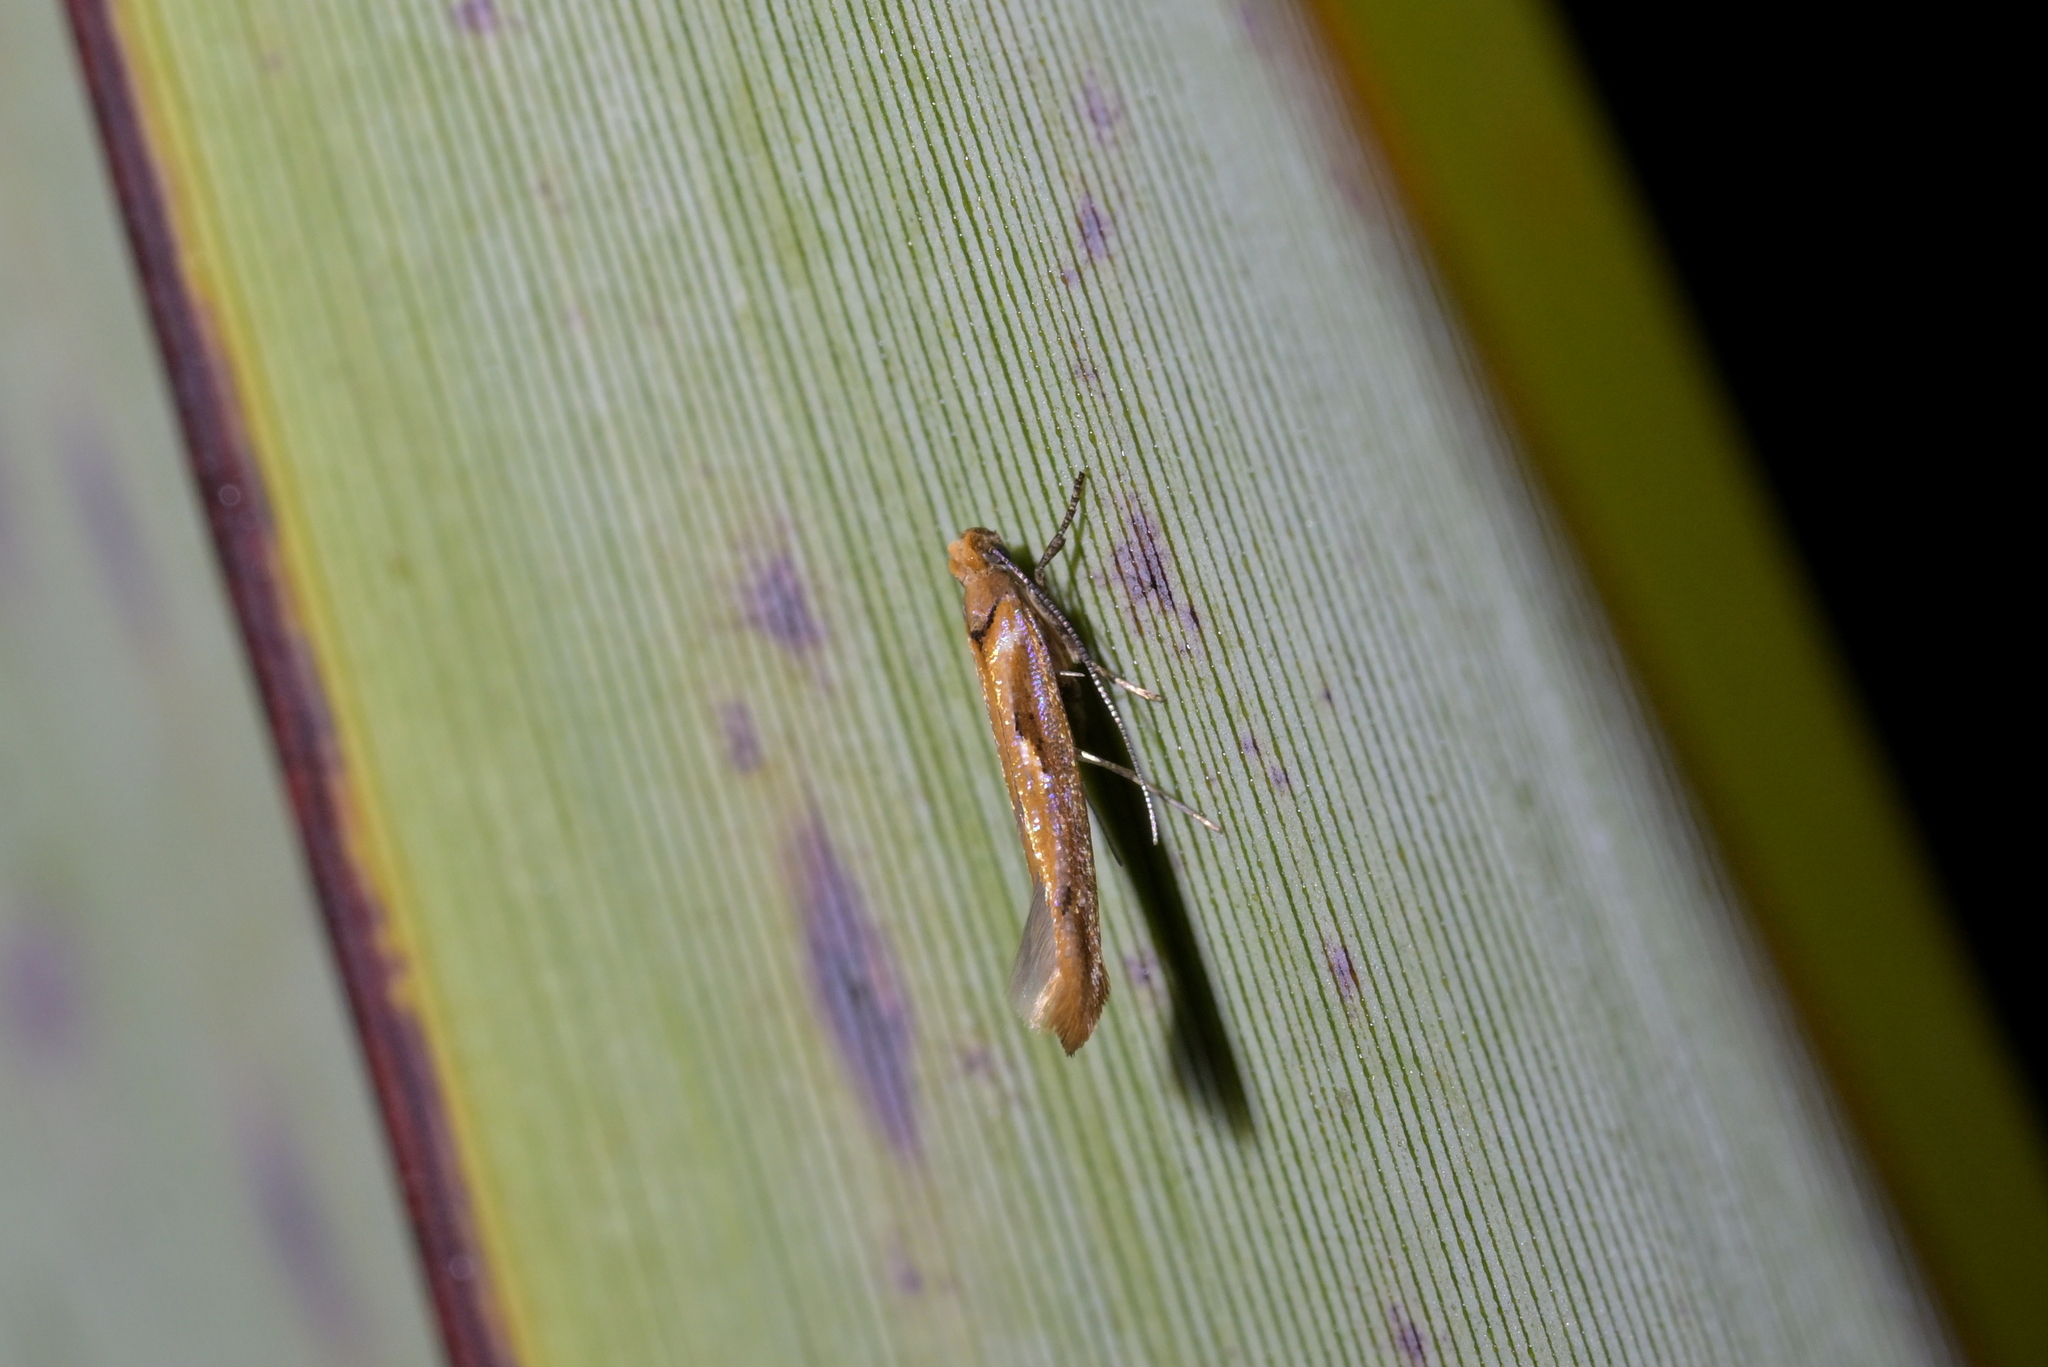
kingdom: Animalia
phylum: Arthropoda
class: Insecta
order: Lepidoptera
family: Yponomeutidae
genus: Zelleria
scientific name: Zelleria porphyraula
